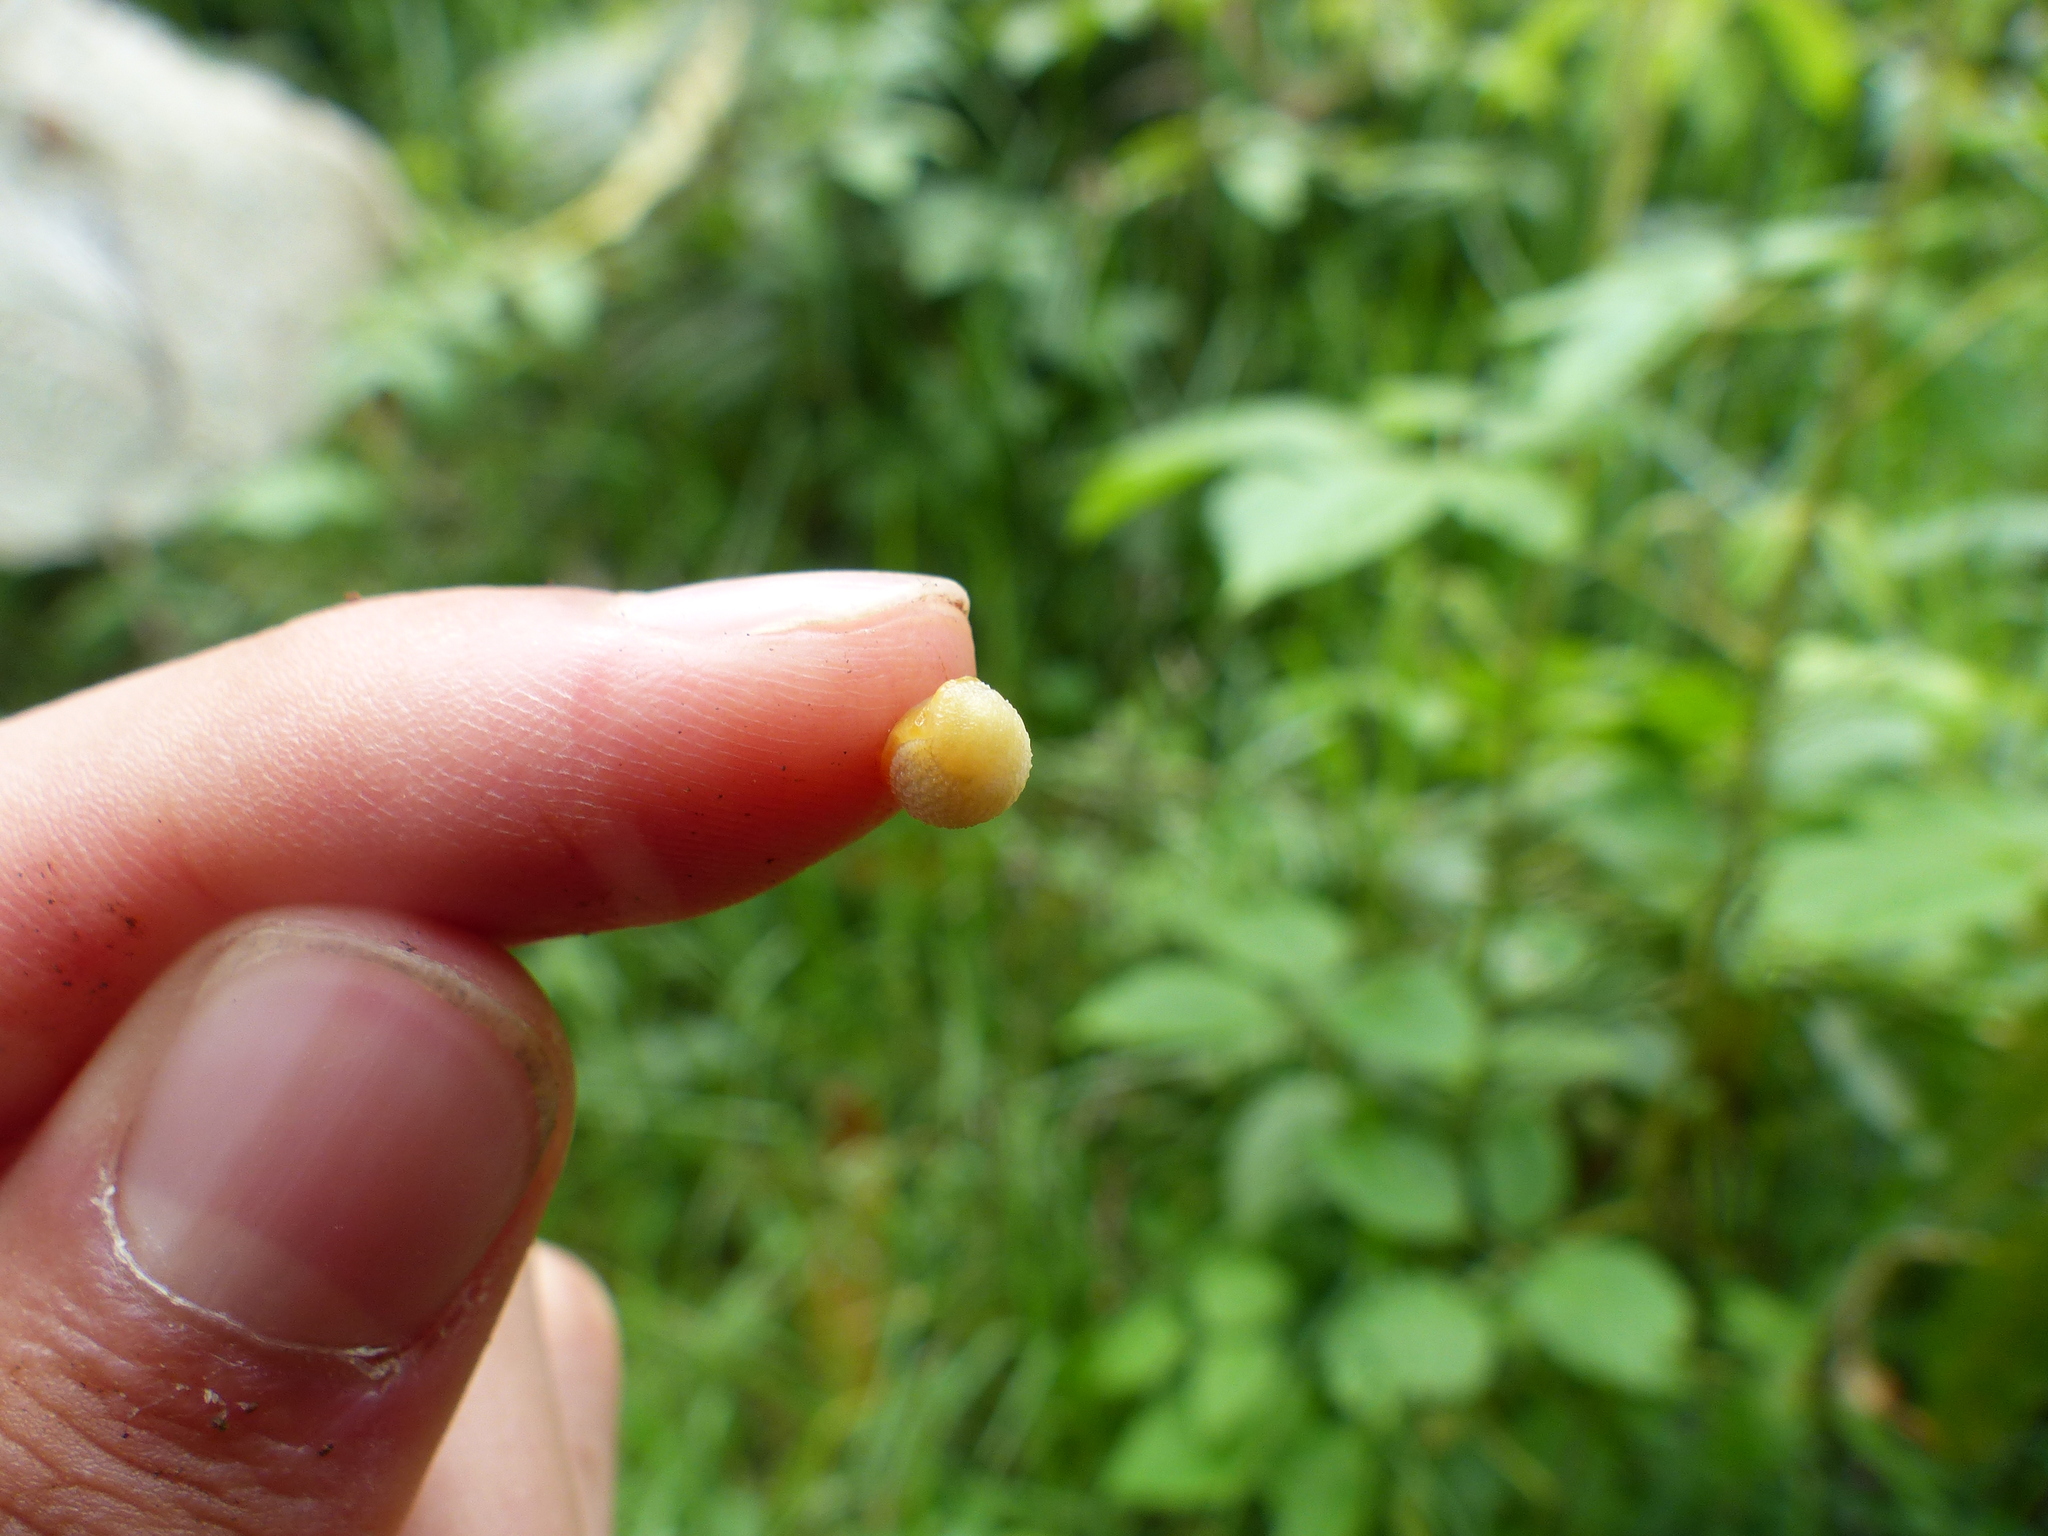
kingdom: Animalia
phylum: Mollusca
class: Gastropoda
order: Stylommatophora
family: Arionidae
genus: Arion
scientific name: Arion intermedius
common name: Hedgehog slug
